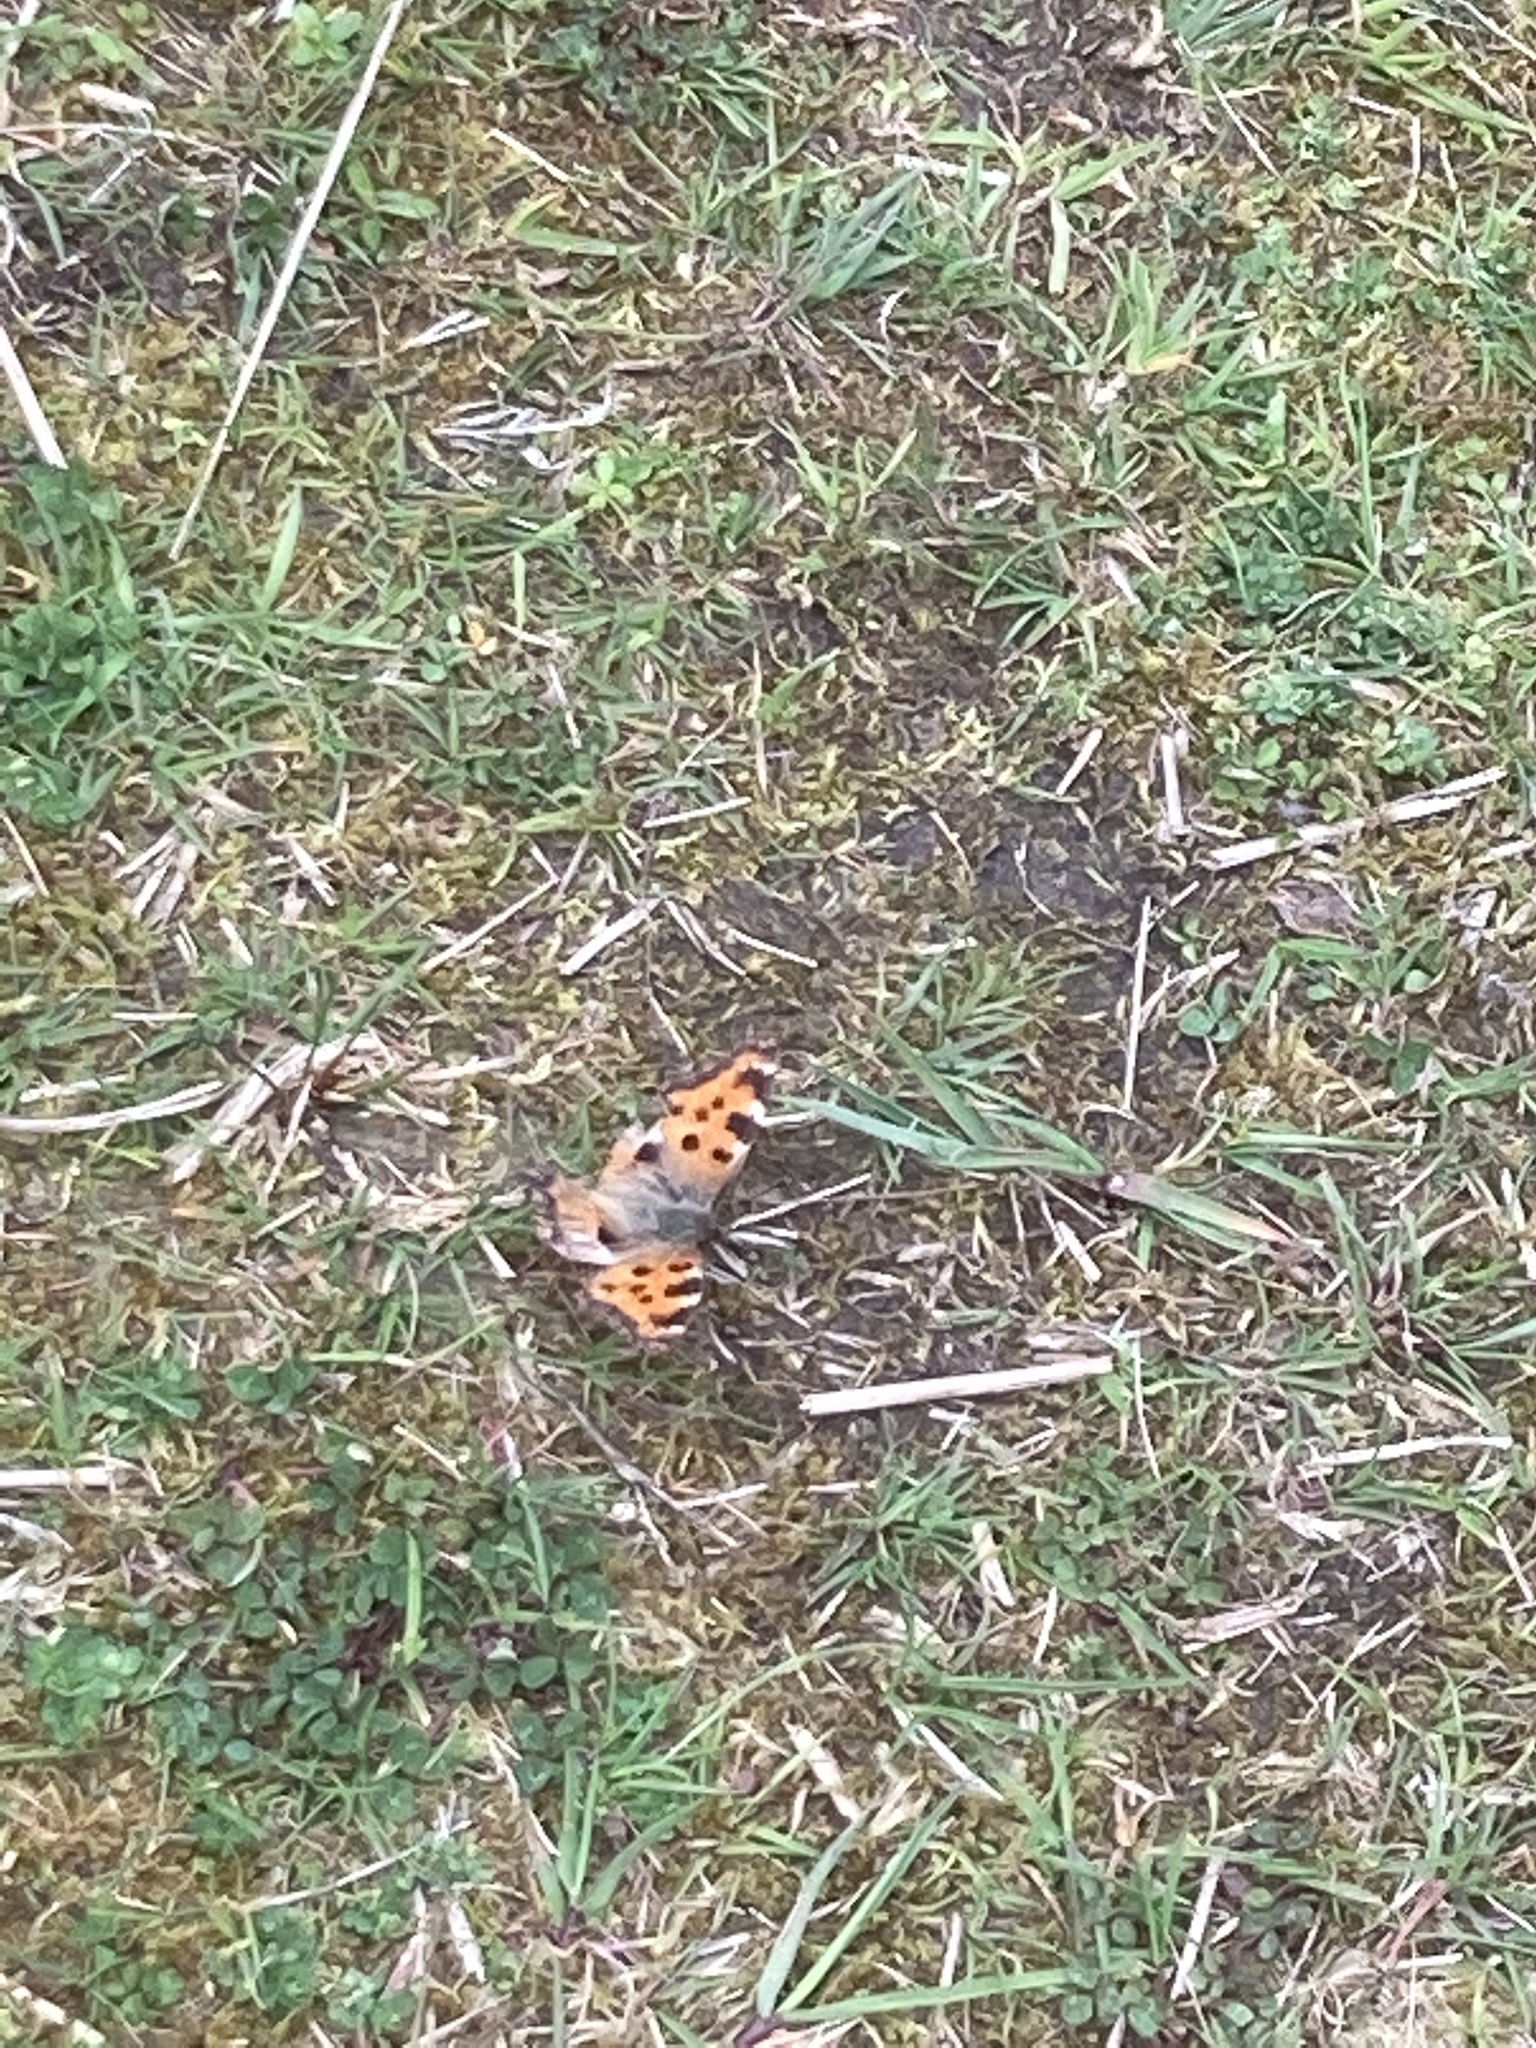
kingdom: Animalia
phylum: Arthropoda
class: Insecta
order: Lepidoptera
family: Nymphalidae
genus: Nymphalis
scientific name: Nymphalis polychloros
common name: Large tortoiseshell
